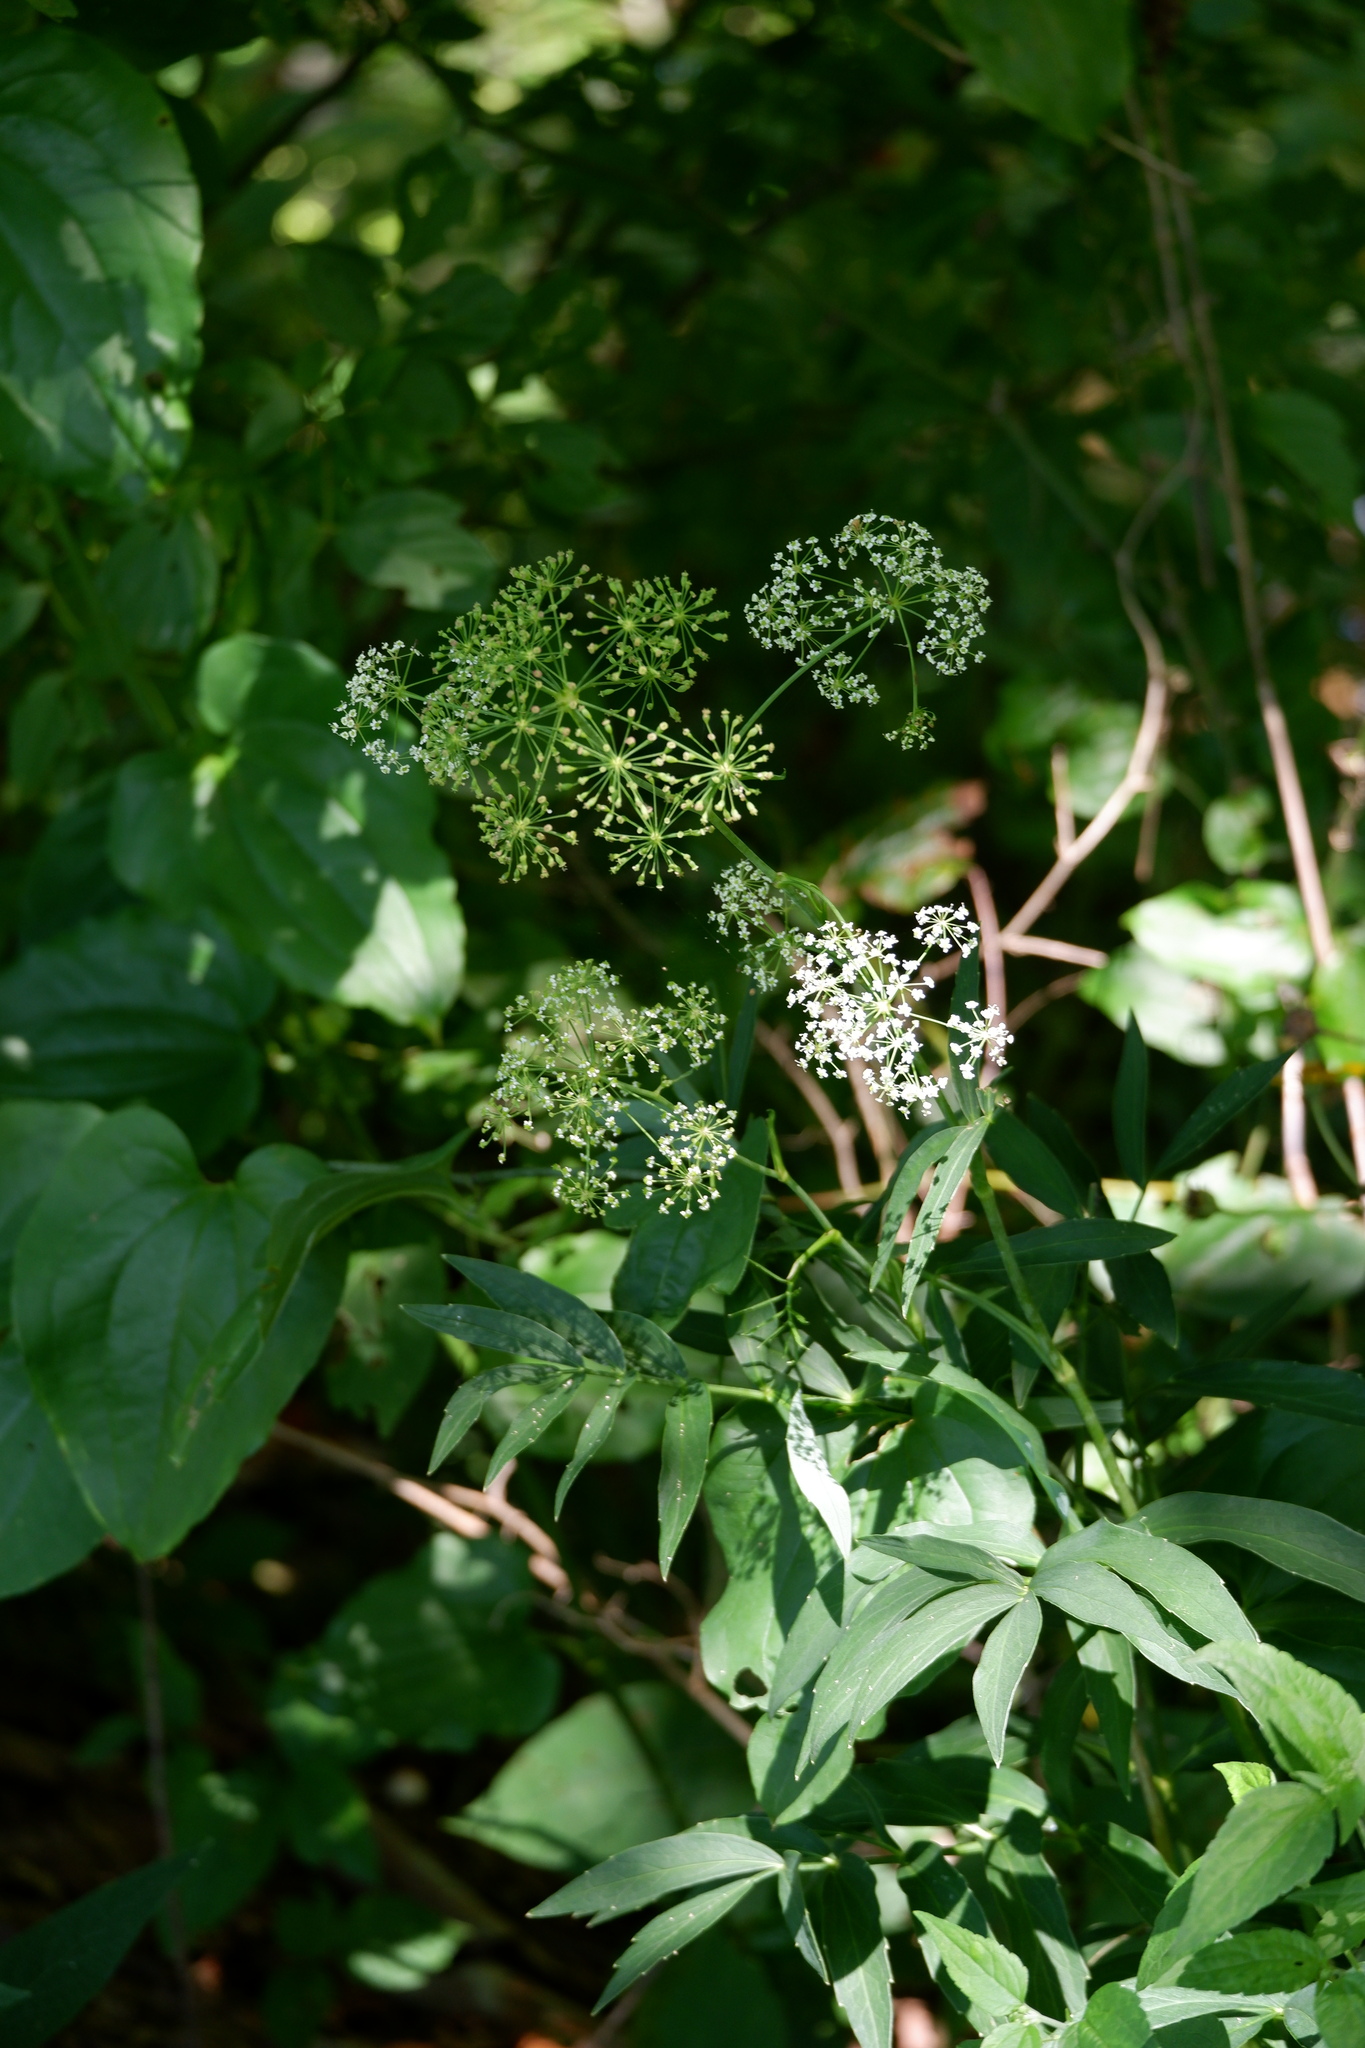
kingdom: Plantae
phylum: Tracheophyta
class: Magnoliopsida
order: Apiales
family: Apiaceae
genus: Oxypolis
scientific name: Oxypolis rigidior
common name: Cowbane
